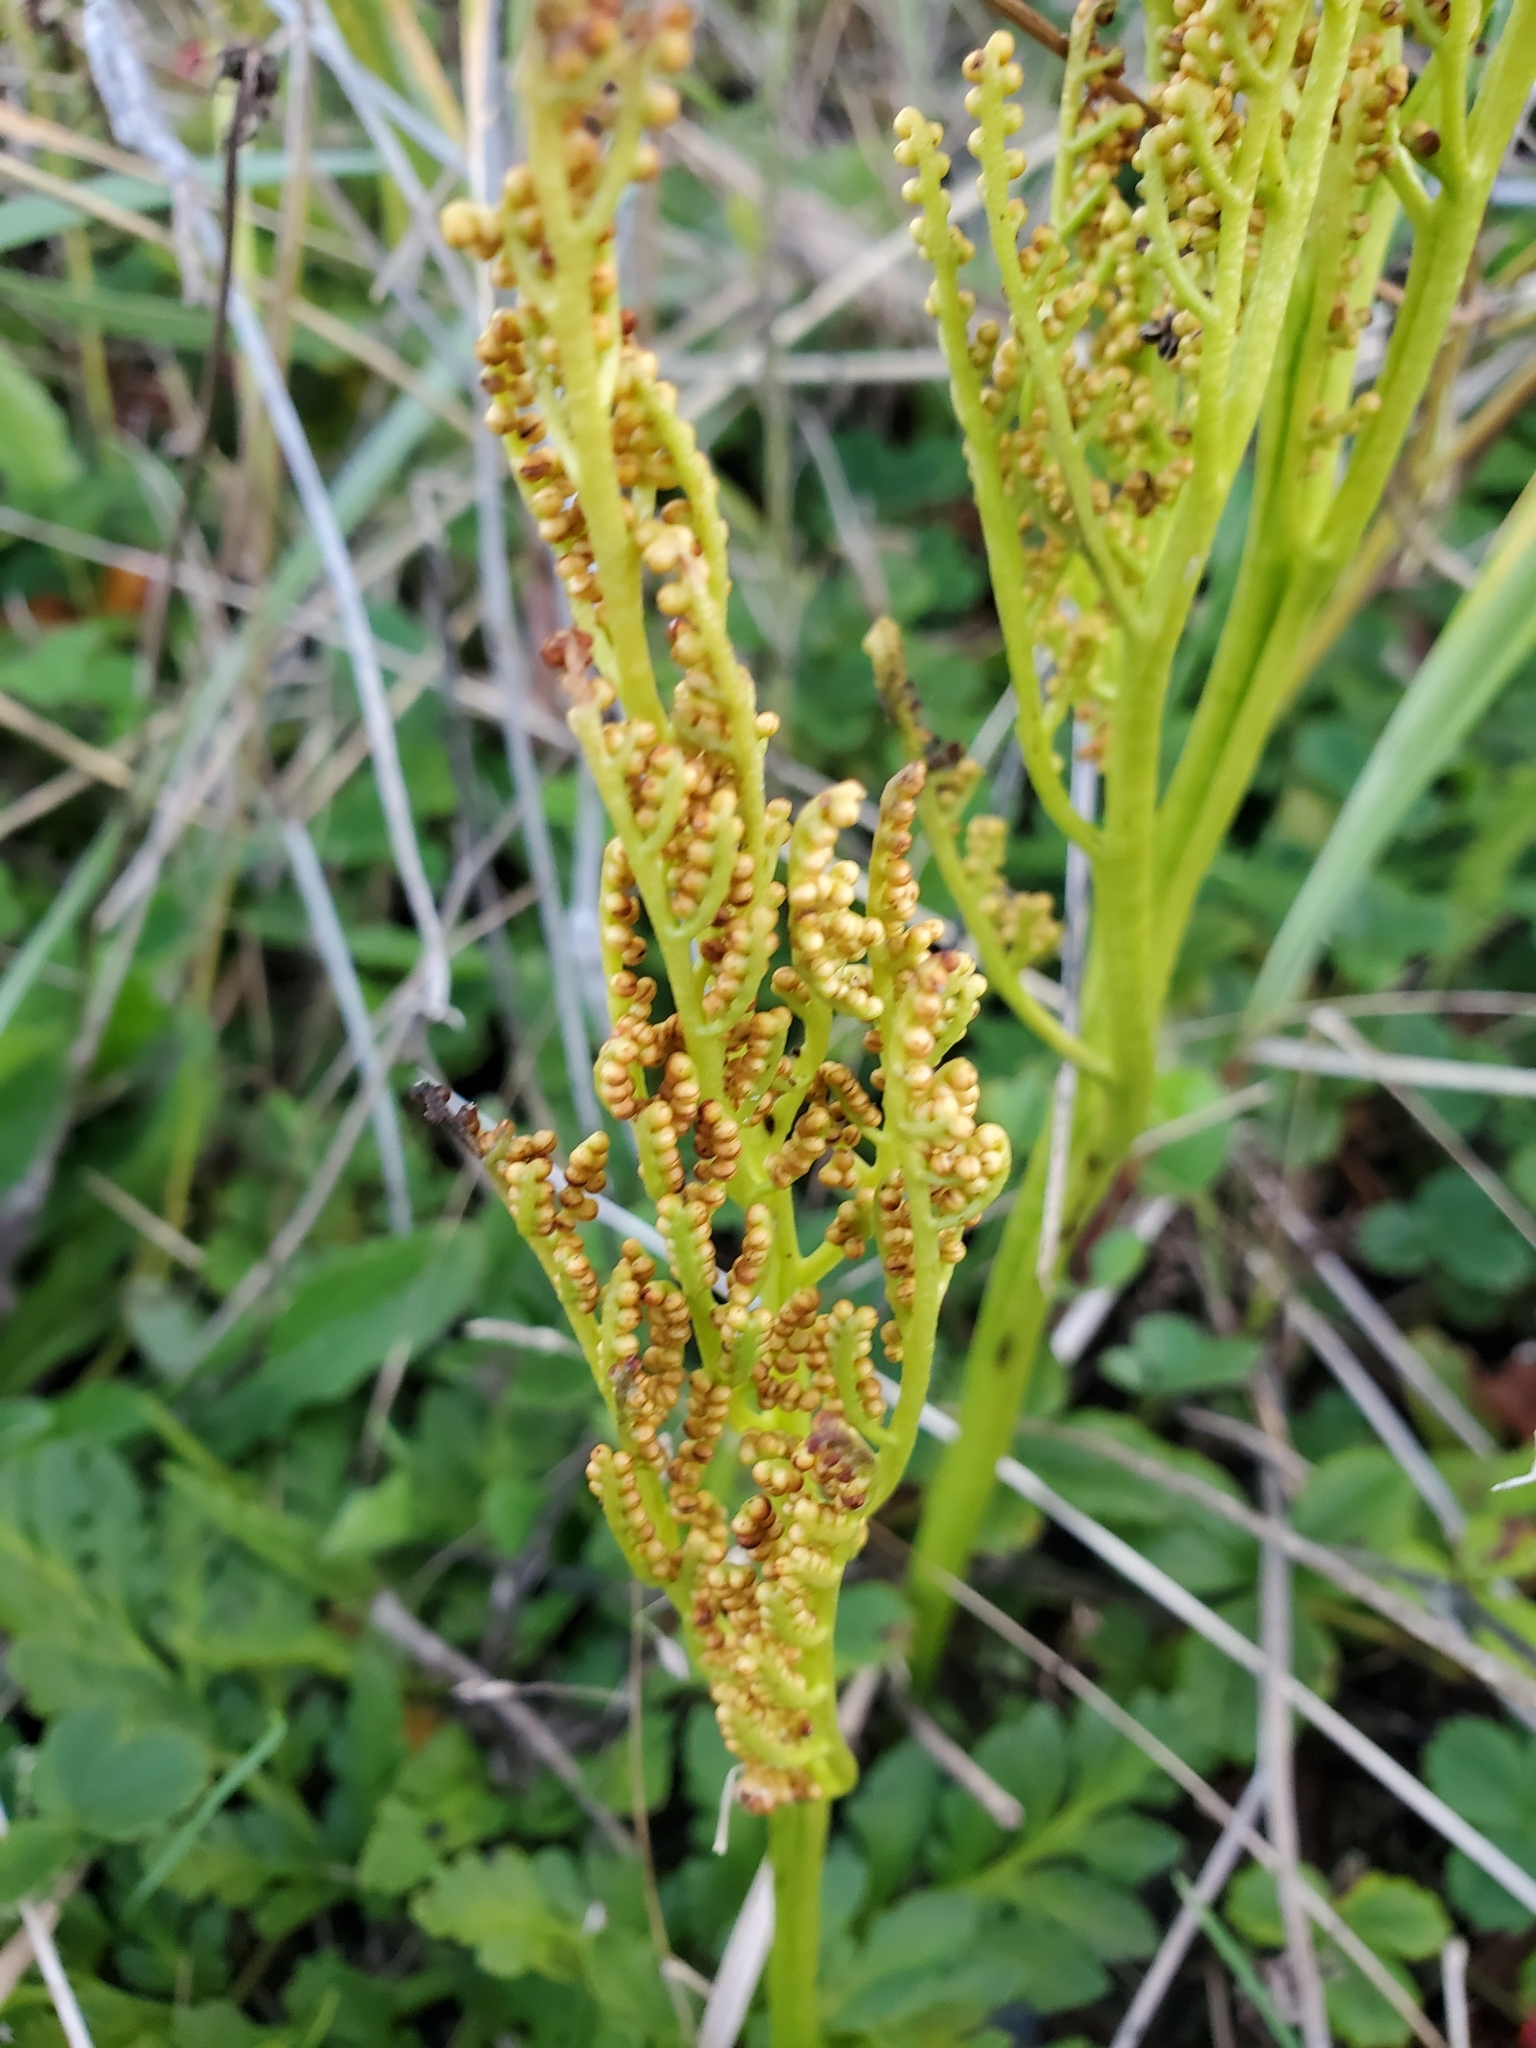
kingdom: Plantae
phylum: Tracheophyta
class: Polypodiopsida
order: Ophioglossales
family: Ophioglossaceae
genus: Sceptridium
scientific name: Sceptridium multifidum
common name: Leathery grape fern
